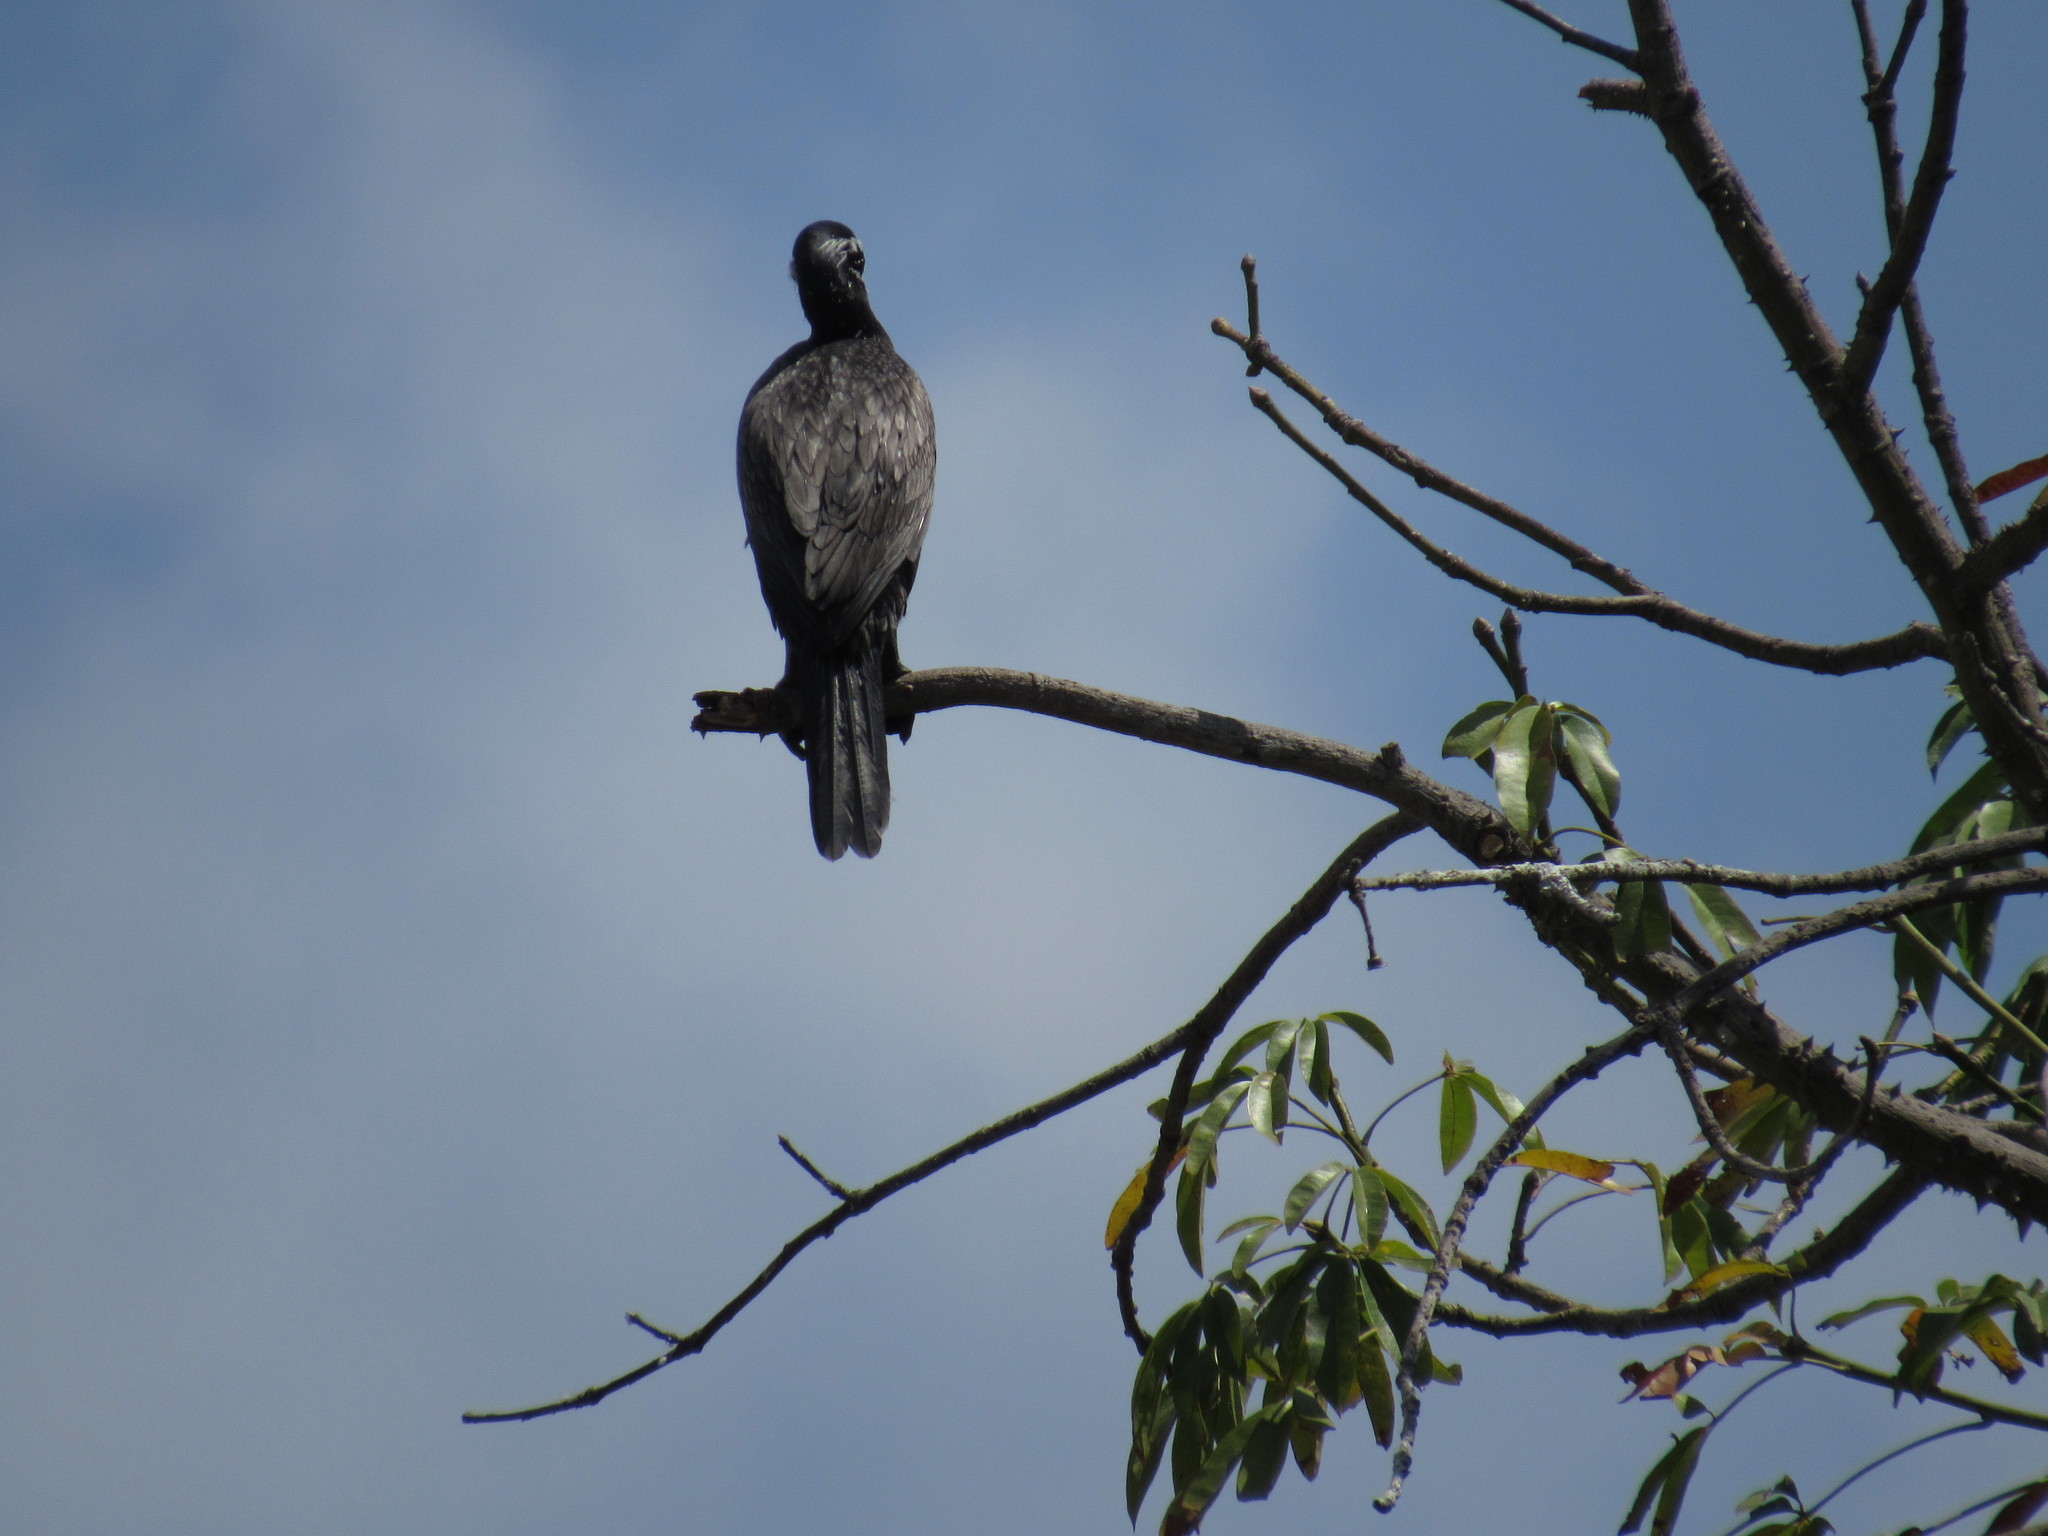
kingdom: Animalia
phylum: Chordata
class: Aves
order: Suliformes
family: Phalacrocoracidae
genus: Phalacrocorax
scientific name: Phalacrocorax brasilianus
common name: Neotropic cormorant
